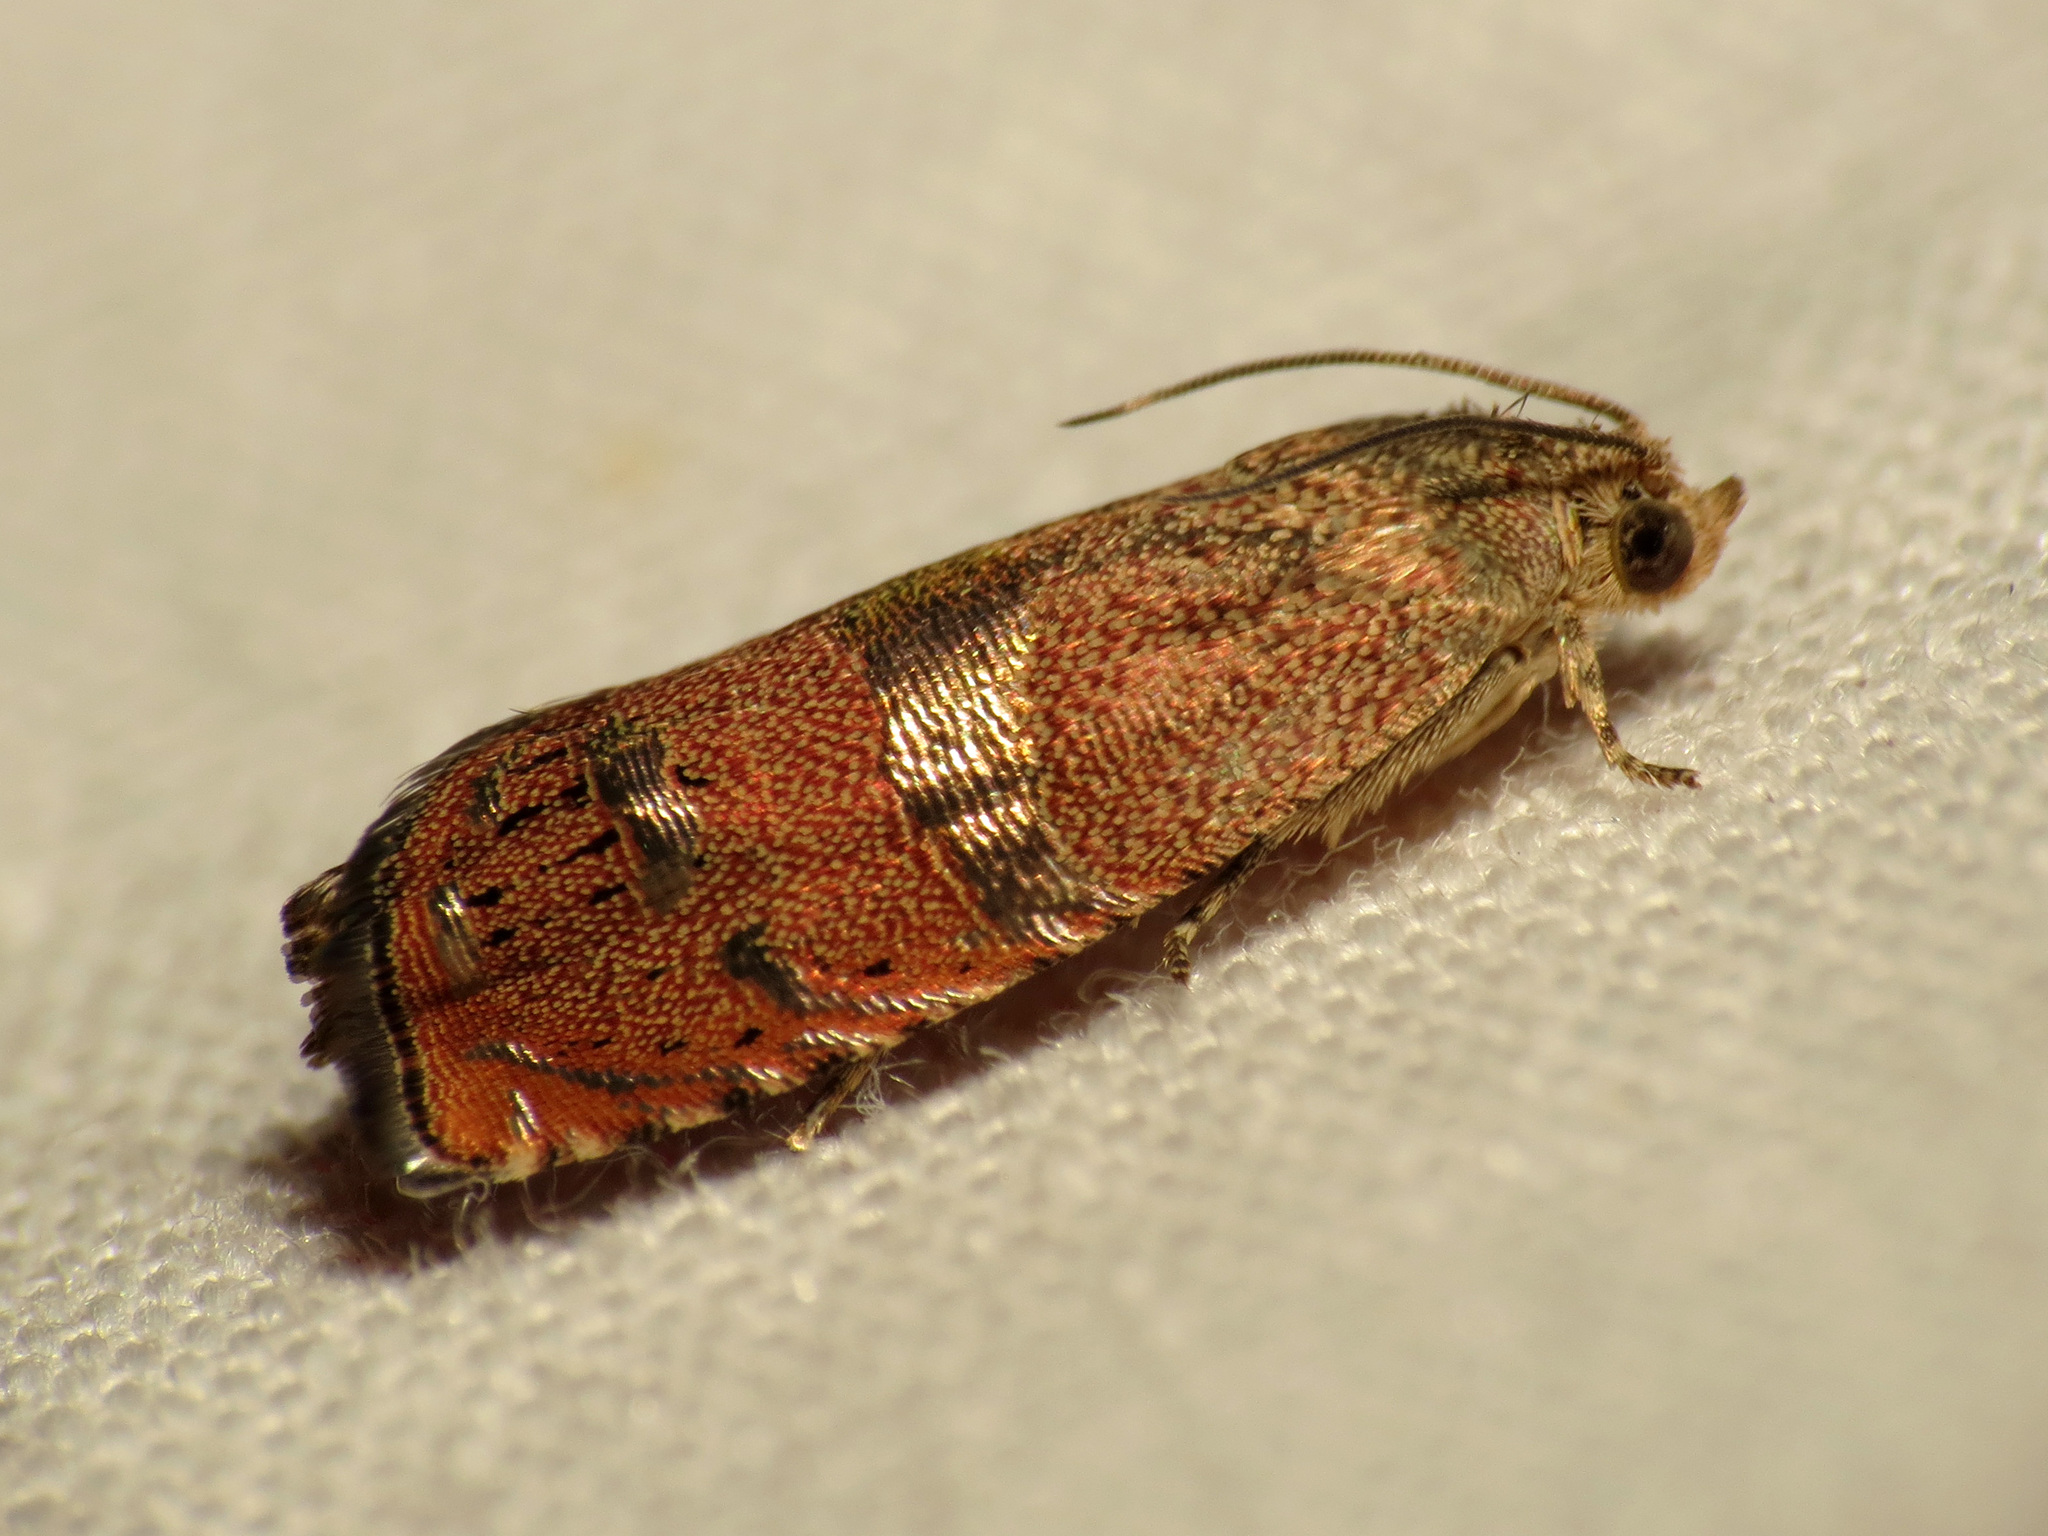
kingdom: Animalia
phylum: Arthropoda
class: Insecta
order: Lepidoptera
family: Tortricidae
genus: Cydia
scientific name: Cydia latiferreana
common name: Filbertworm moth
